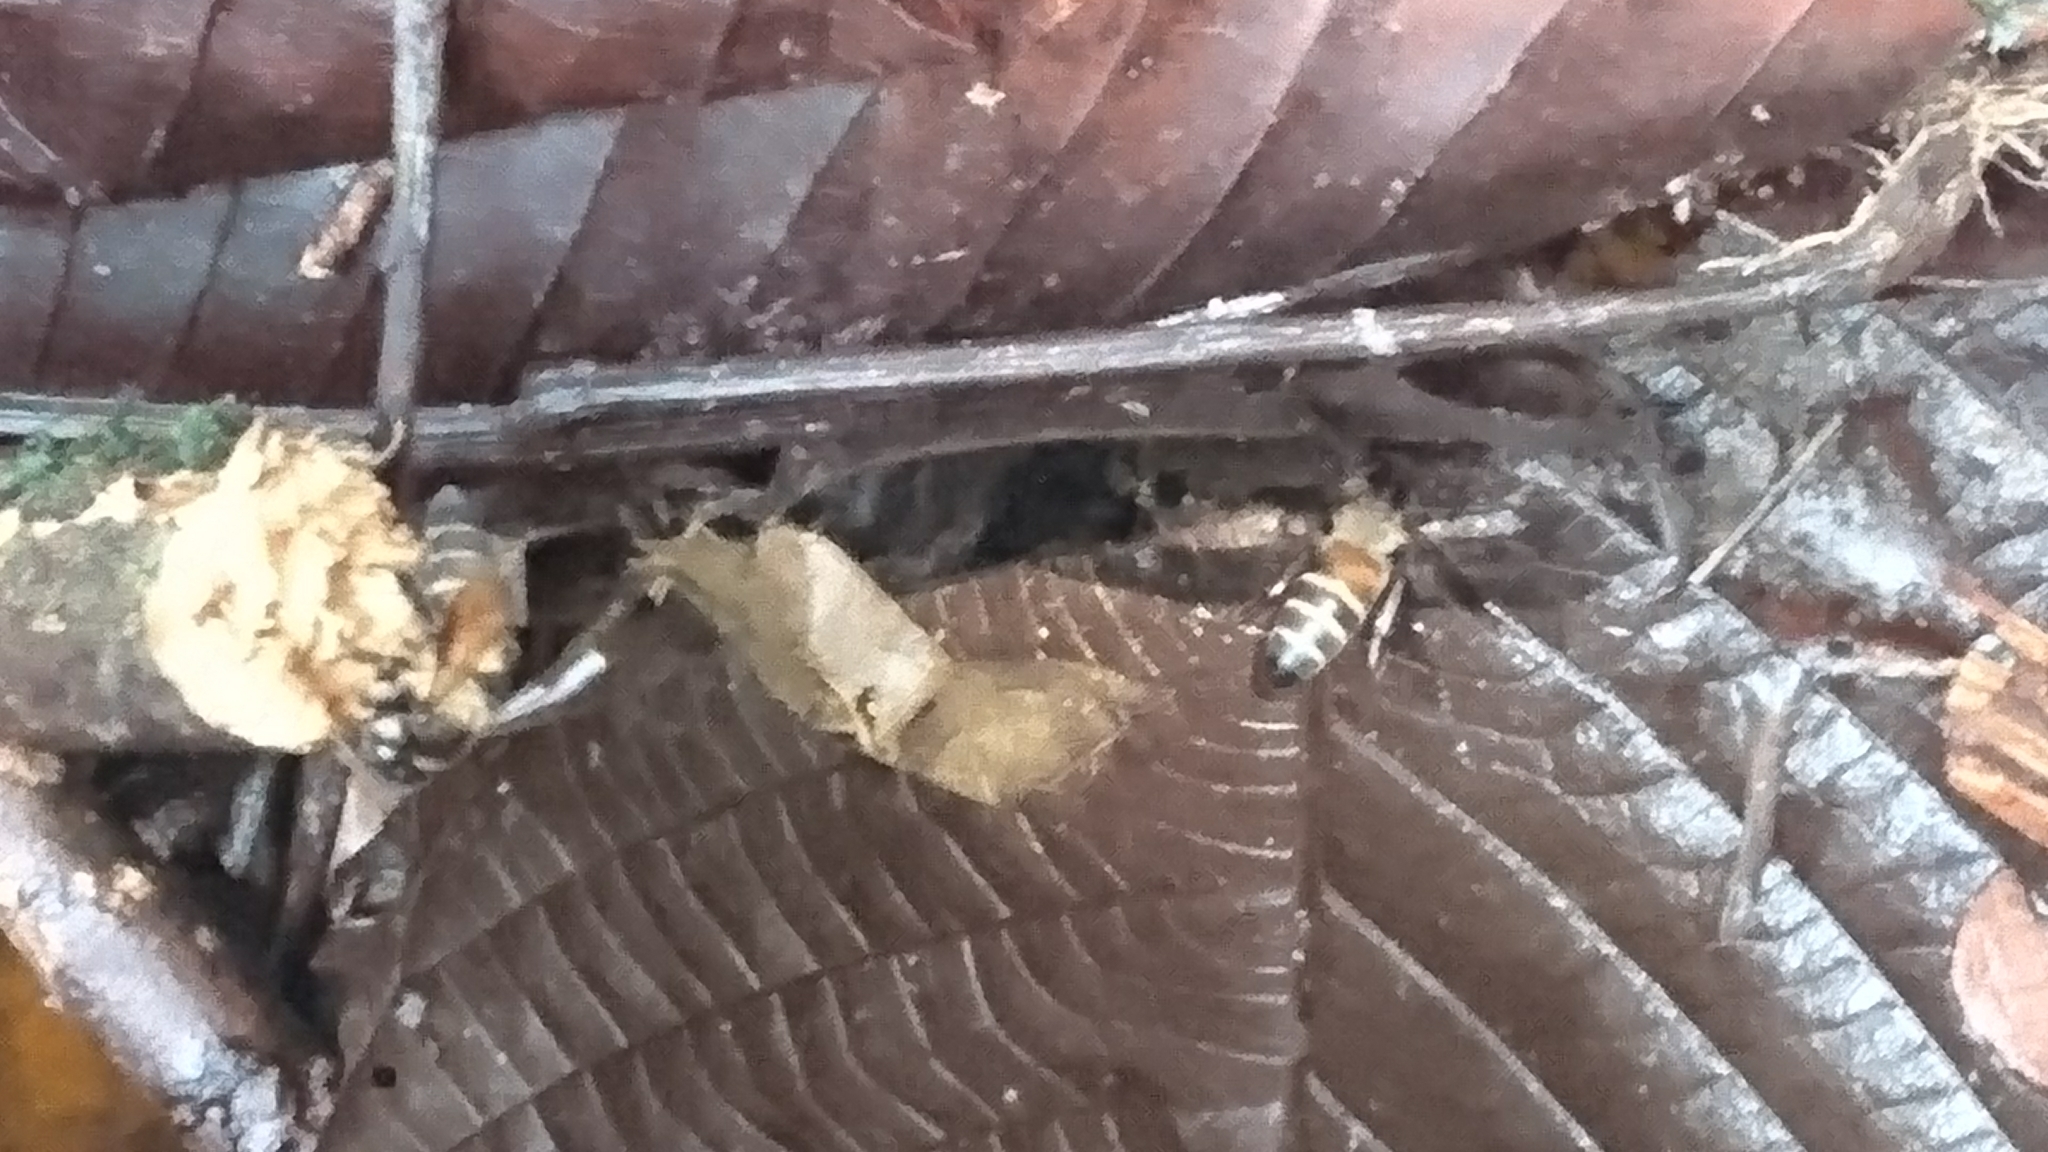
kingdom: Animalia
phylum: Arthropoda
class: Insecta
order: Hymenoptera
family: Apidae
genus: Apis
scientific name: Apis dorsata
